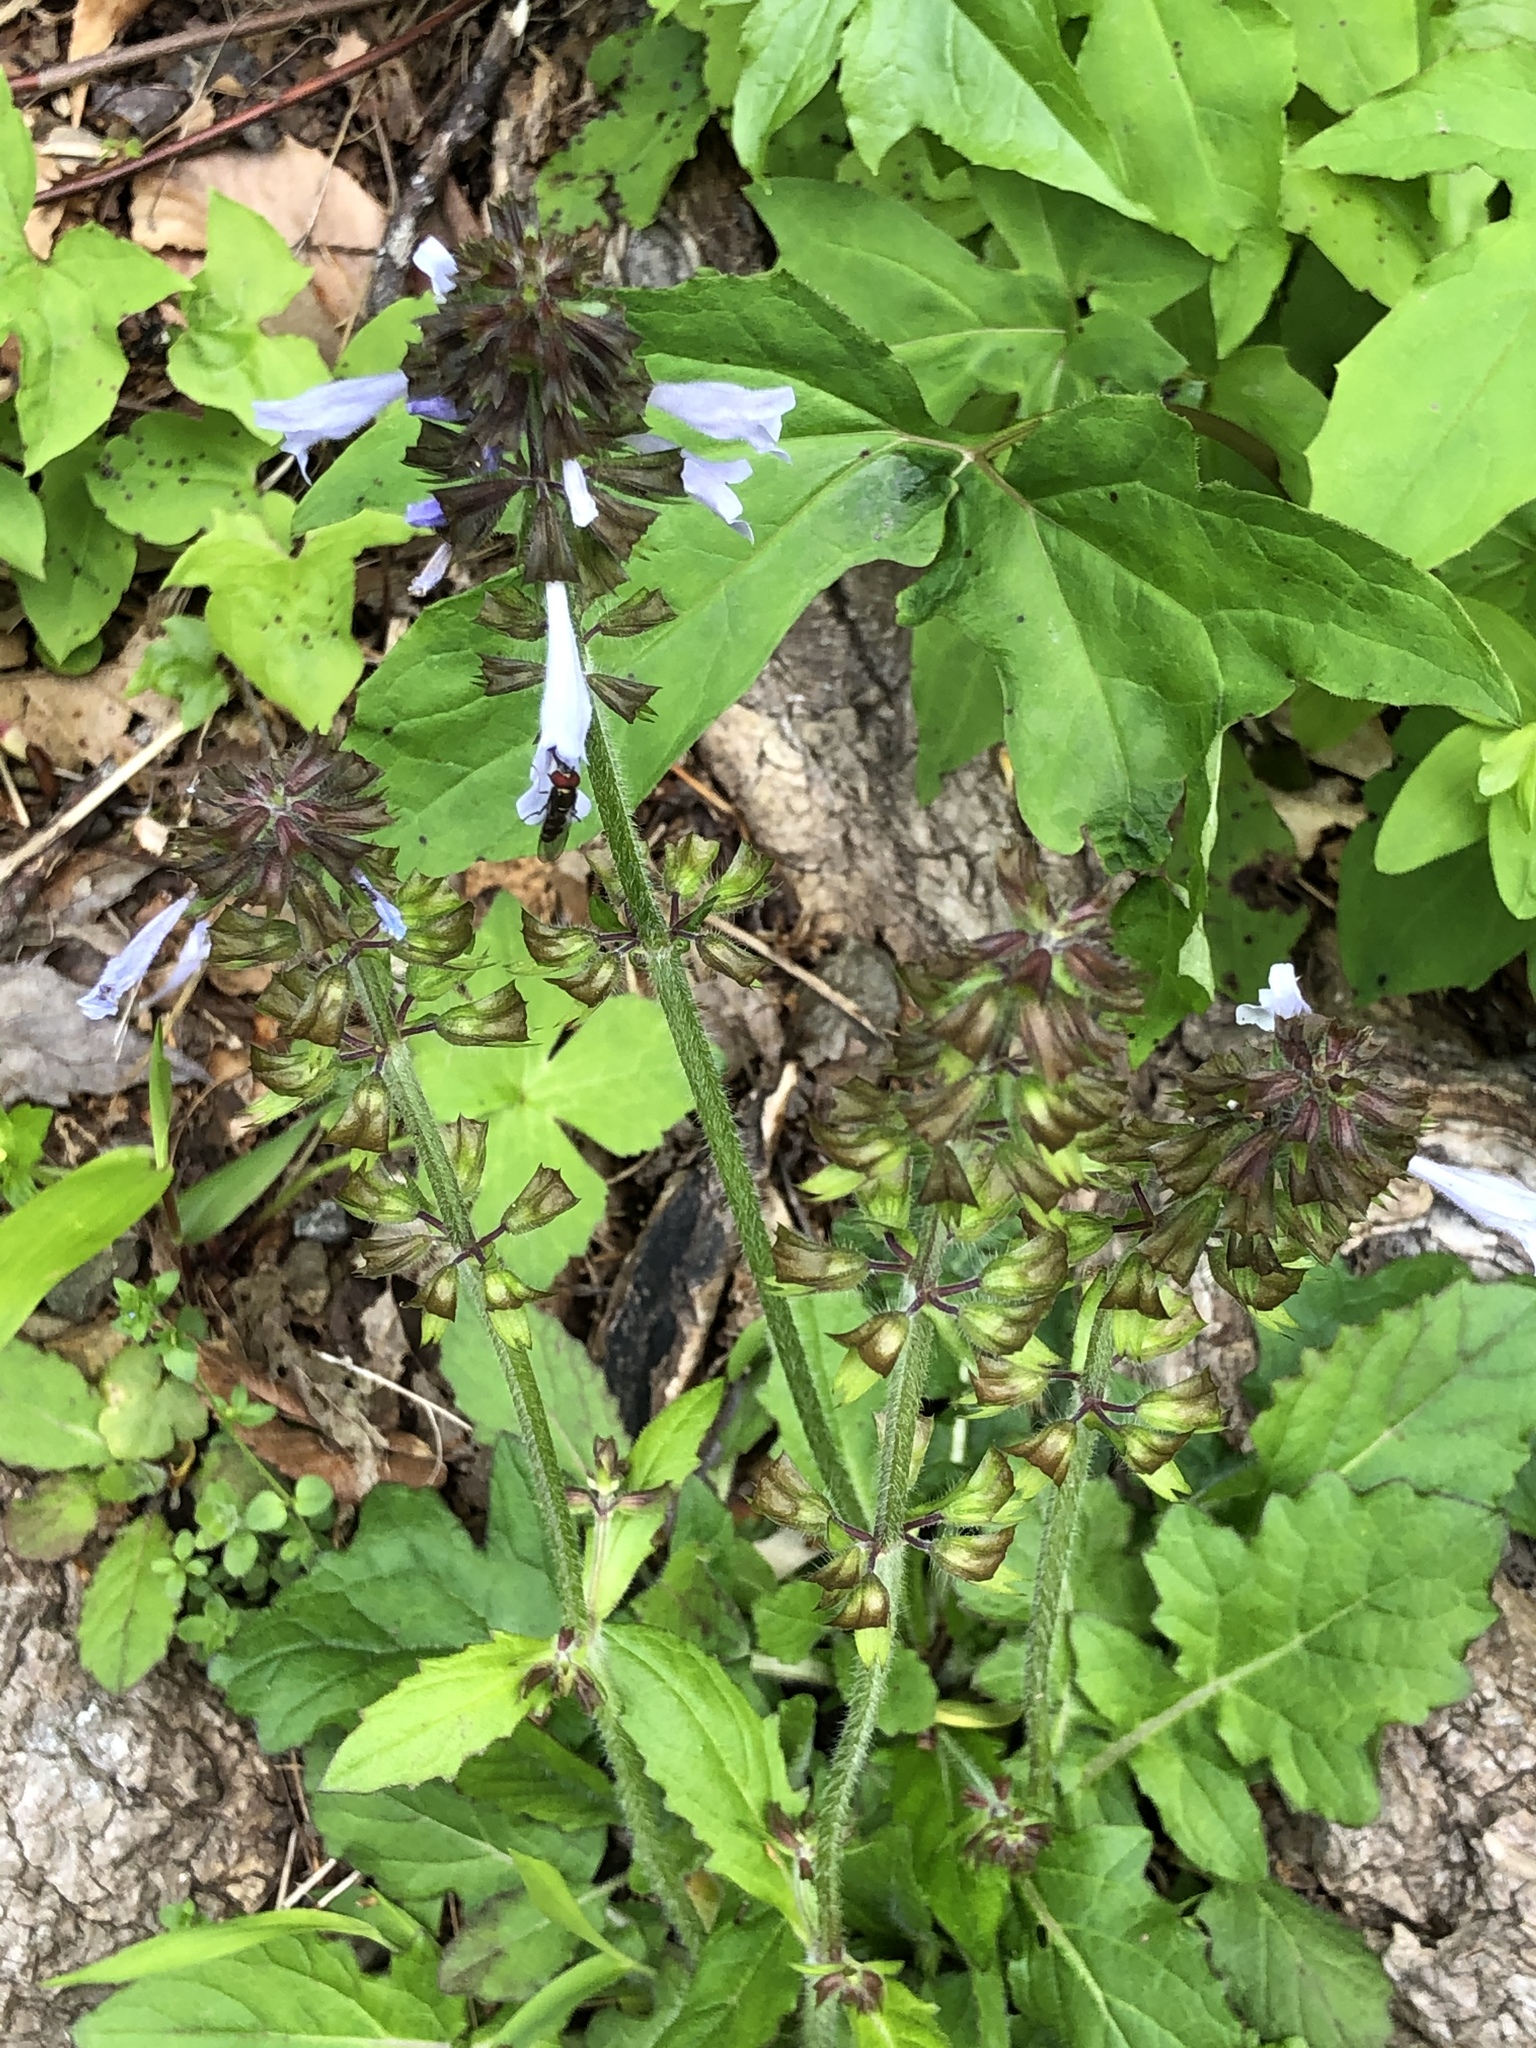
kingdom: Plantae
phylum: Tracheophyta
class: Magnoliopsida
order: Lamiales
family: Lamiaceae
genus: Salvia
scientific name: Salvia lyrata
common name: Cancerweed
